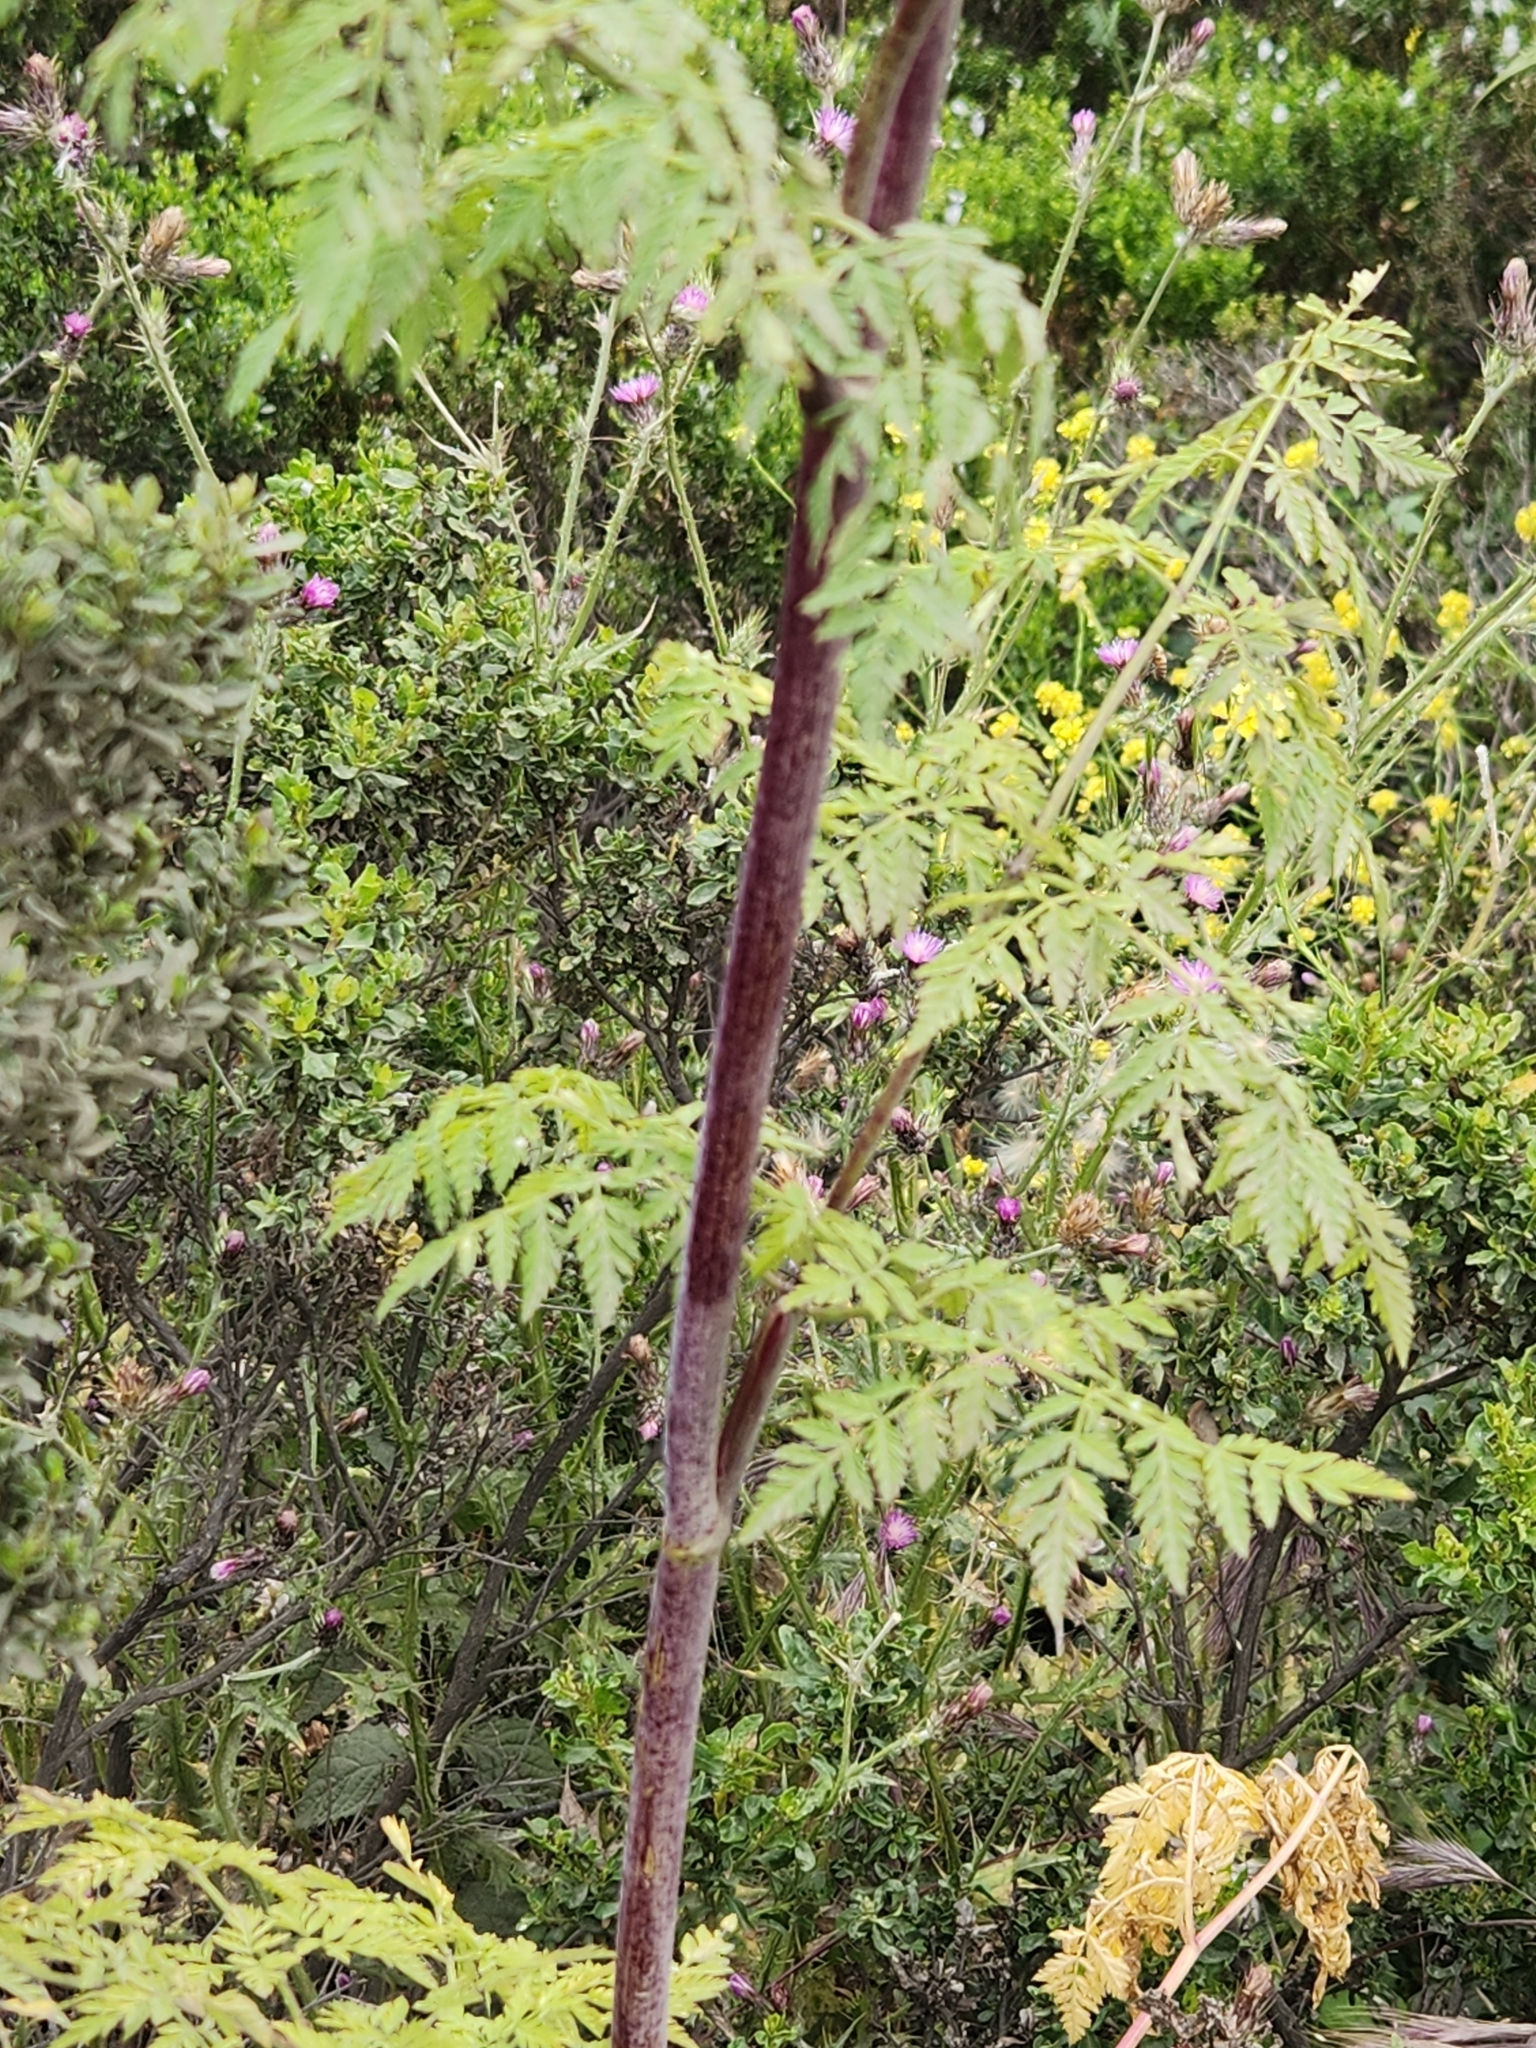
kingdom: Plantae
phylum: Tracheophyta
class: Magnoliopsida
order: Apiales
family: Apiaceae
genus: Conium
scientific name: Conium maculatum
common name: Hemlock
